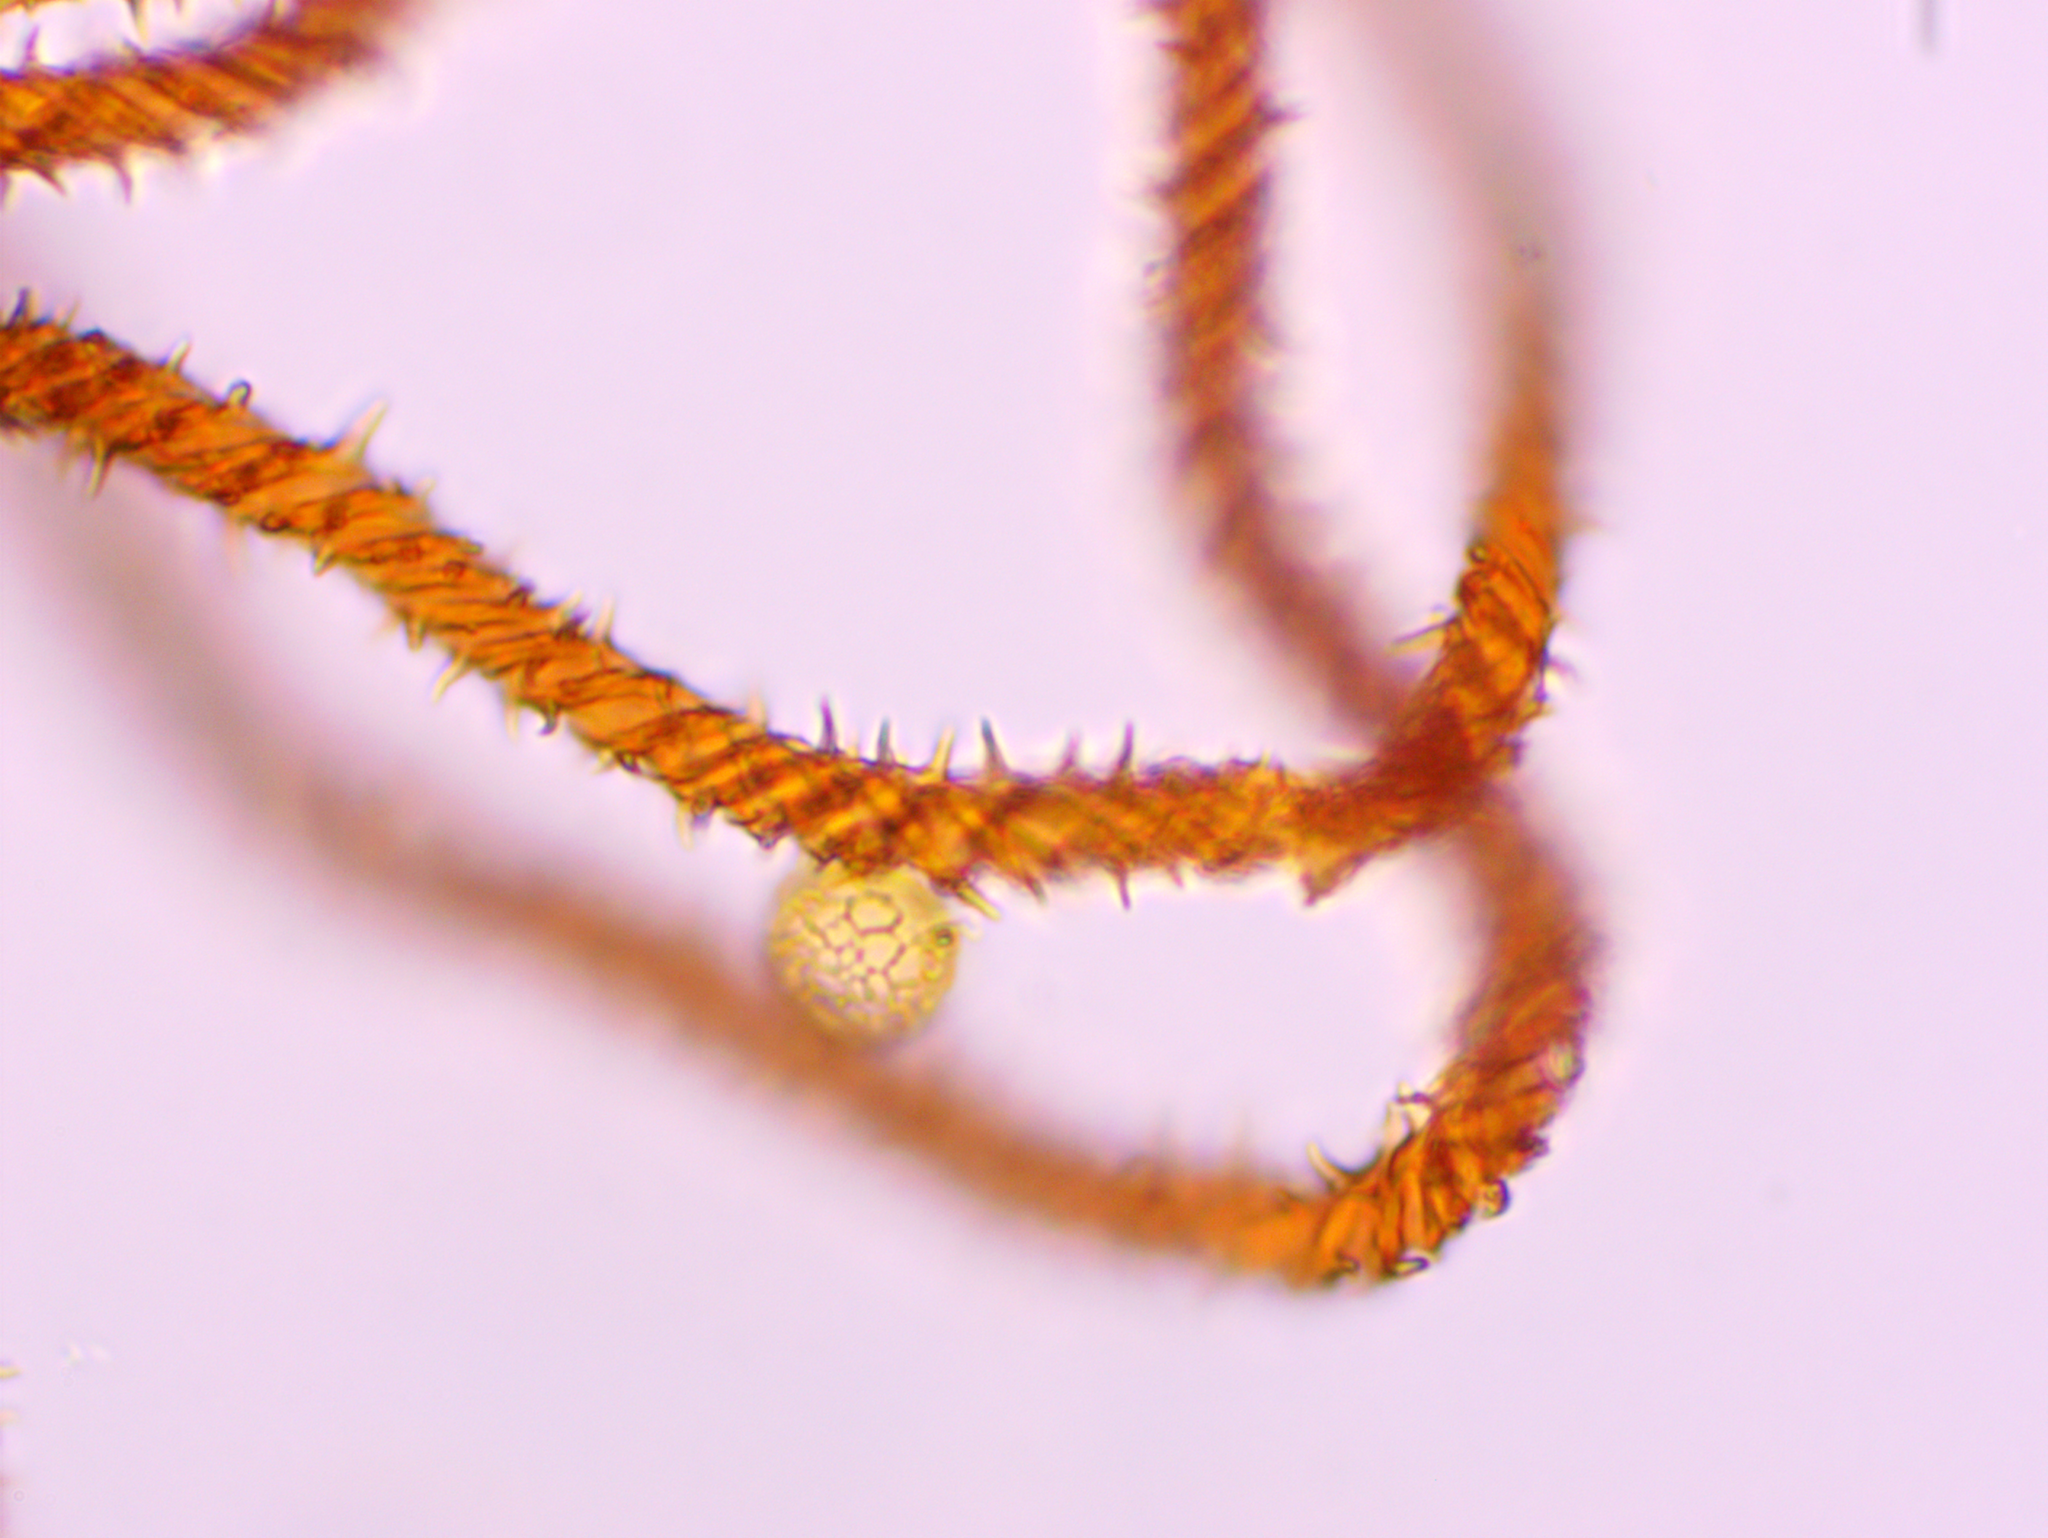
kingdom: Protozoa
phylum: Mycetozoa
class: Myxomycetes
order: Trichiales
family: Trichiaceae
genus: Metatrichia
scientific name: Metatrichia vesparia
